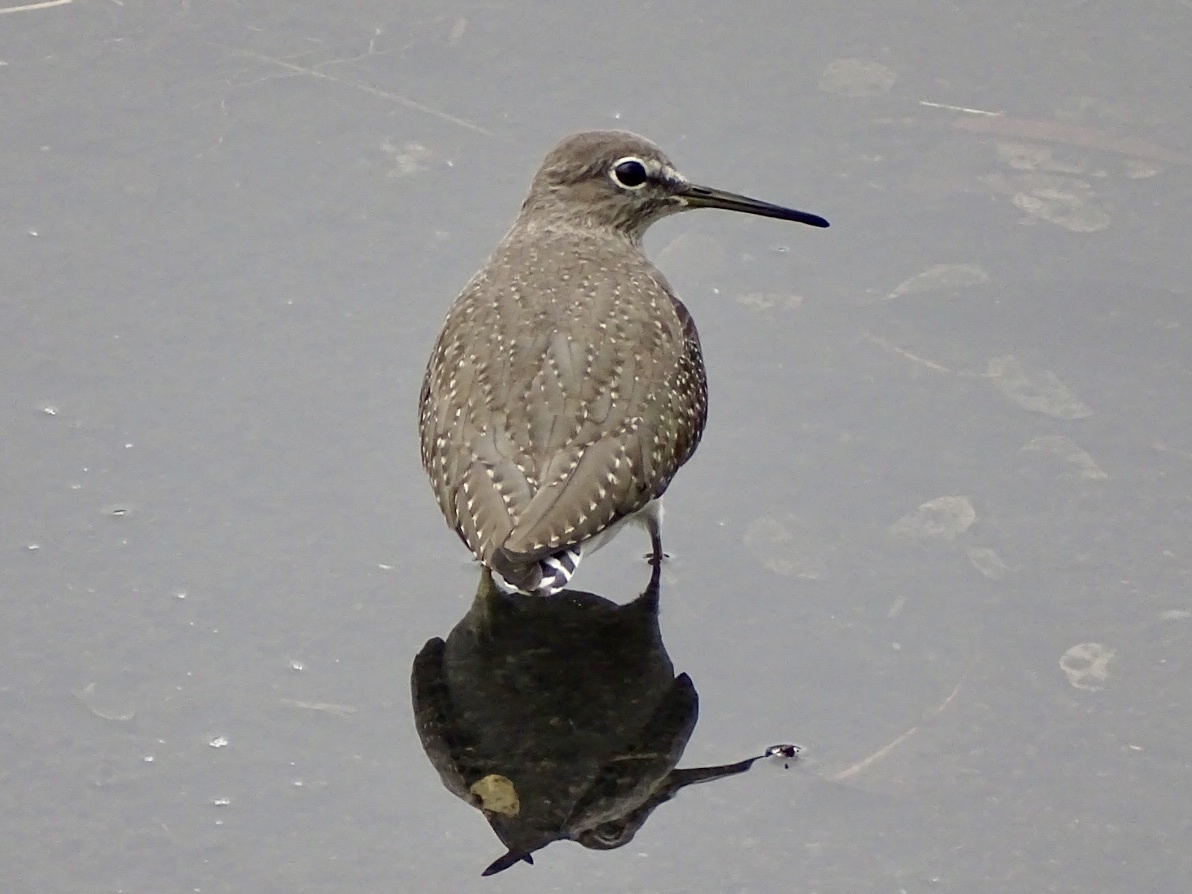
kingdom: Animalia
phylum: Chordata
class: Aves
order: Charadriiformes
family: Scolopacidae
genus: Tringa
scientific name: Tringa ochropus
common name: Green sandpiper
